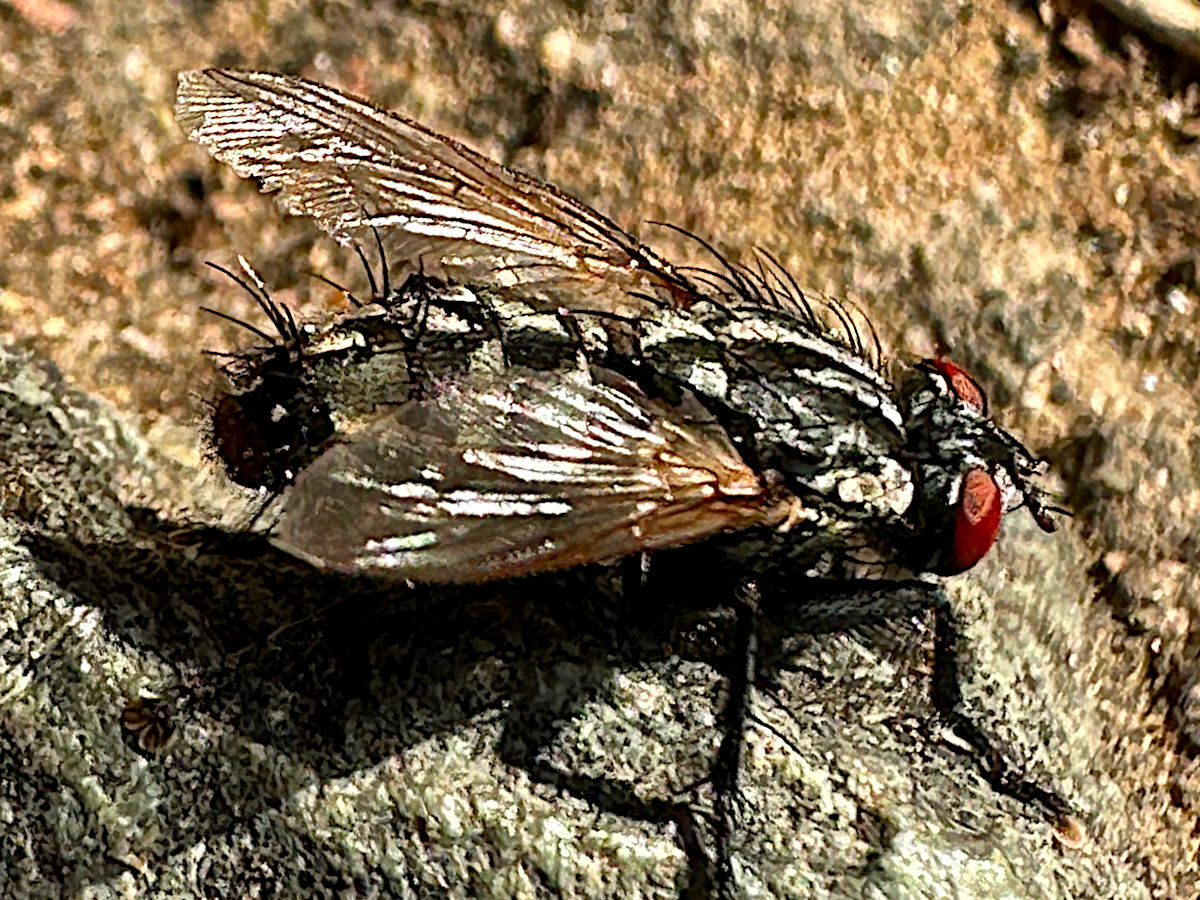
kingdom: Animalia
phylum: Arthropoda
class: Insecta
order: Diptera
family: Sarcophagidae
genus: Sarcophaga
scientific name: Sarcophaga
